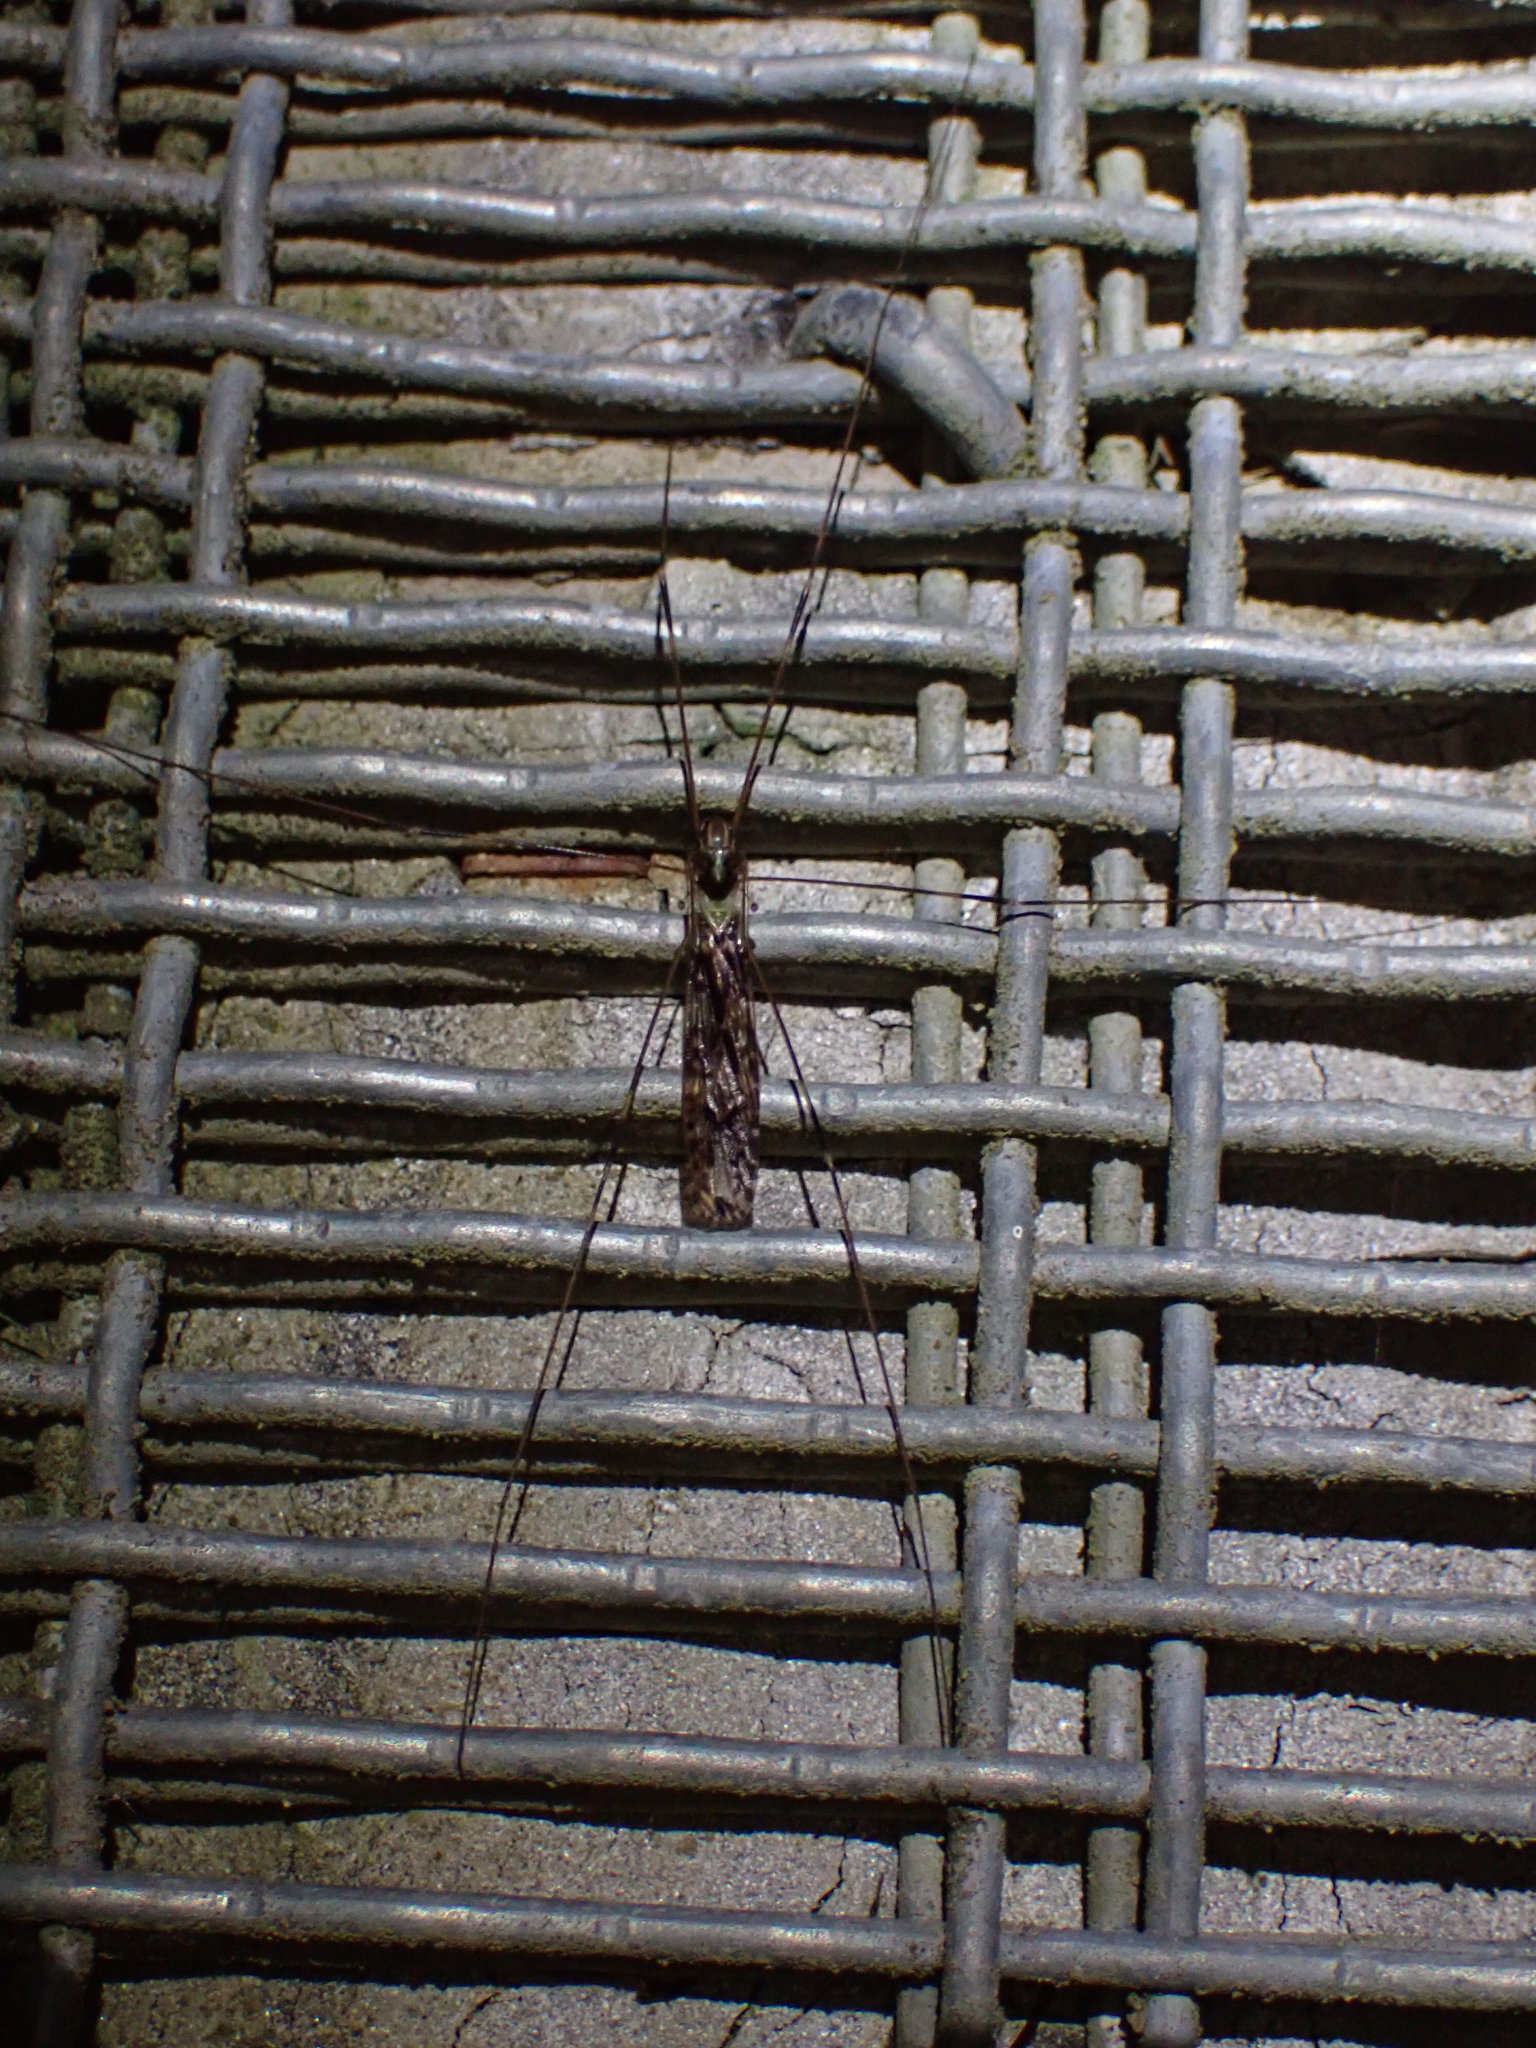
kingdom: Animalia
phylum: Arthropoda
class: Insecta
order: Diptera
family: Limoniidae
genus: Discobola
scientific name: Discobola dohrni
